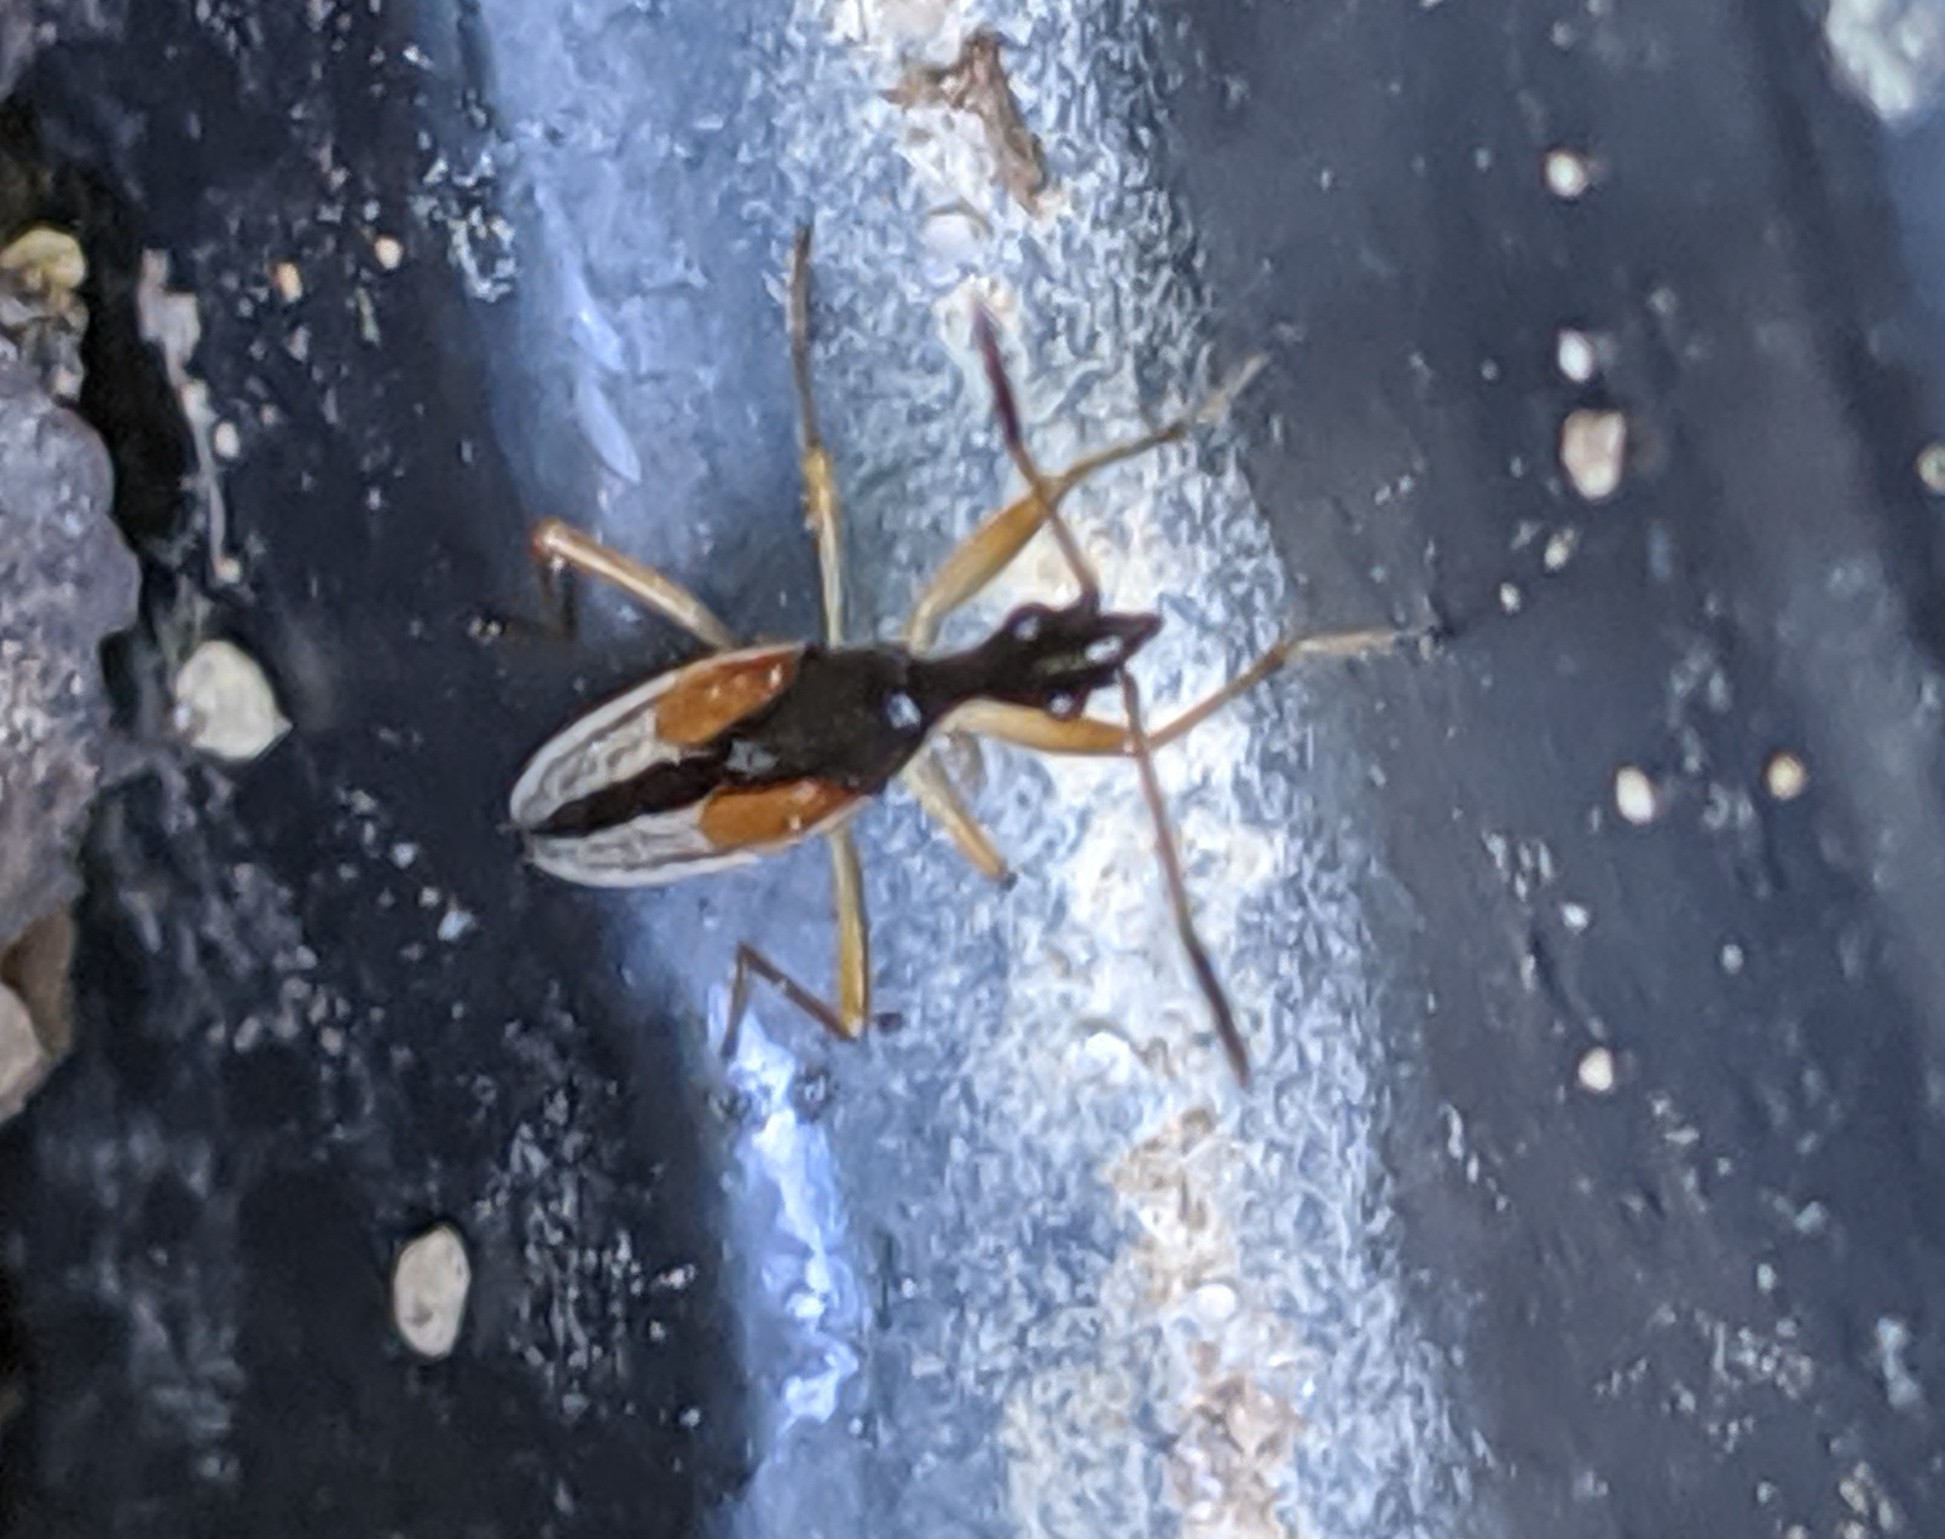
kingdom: Animalia
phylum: Arthropoda
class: Insecta
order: Hemiptera
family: Rhyparochromidae
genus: Myodocha
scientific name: Myodocha serripes
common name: Long-necked seed bug
